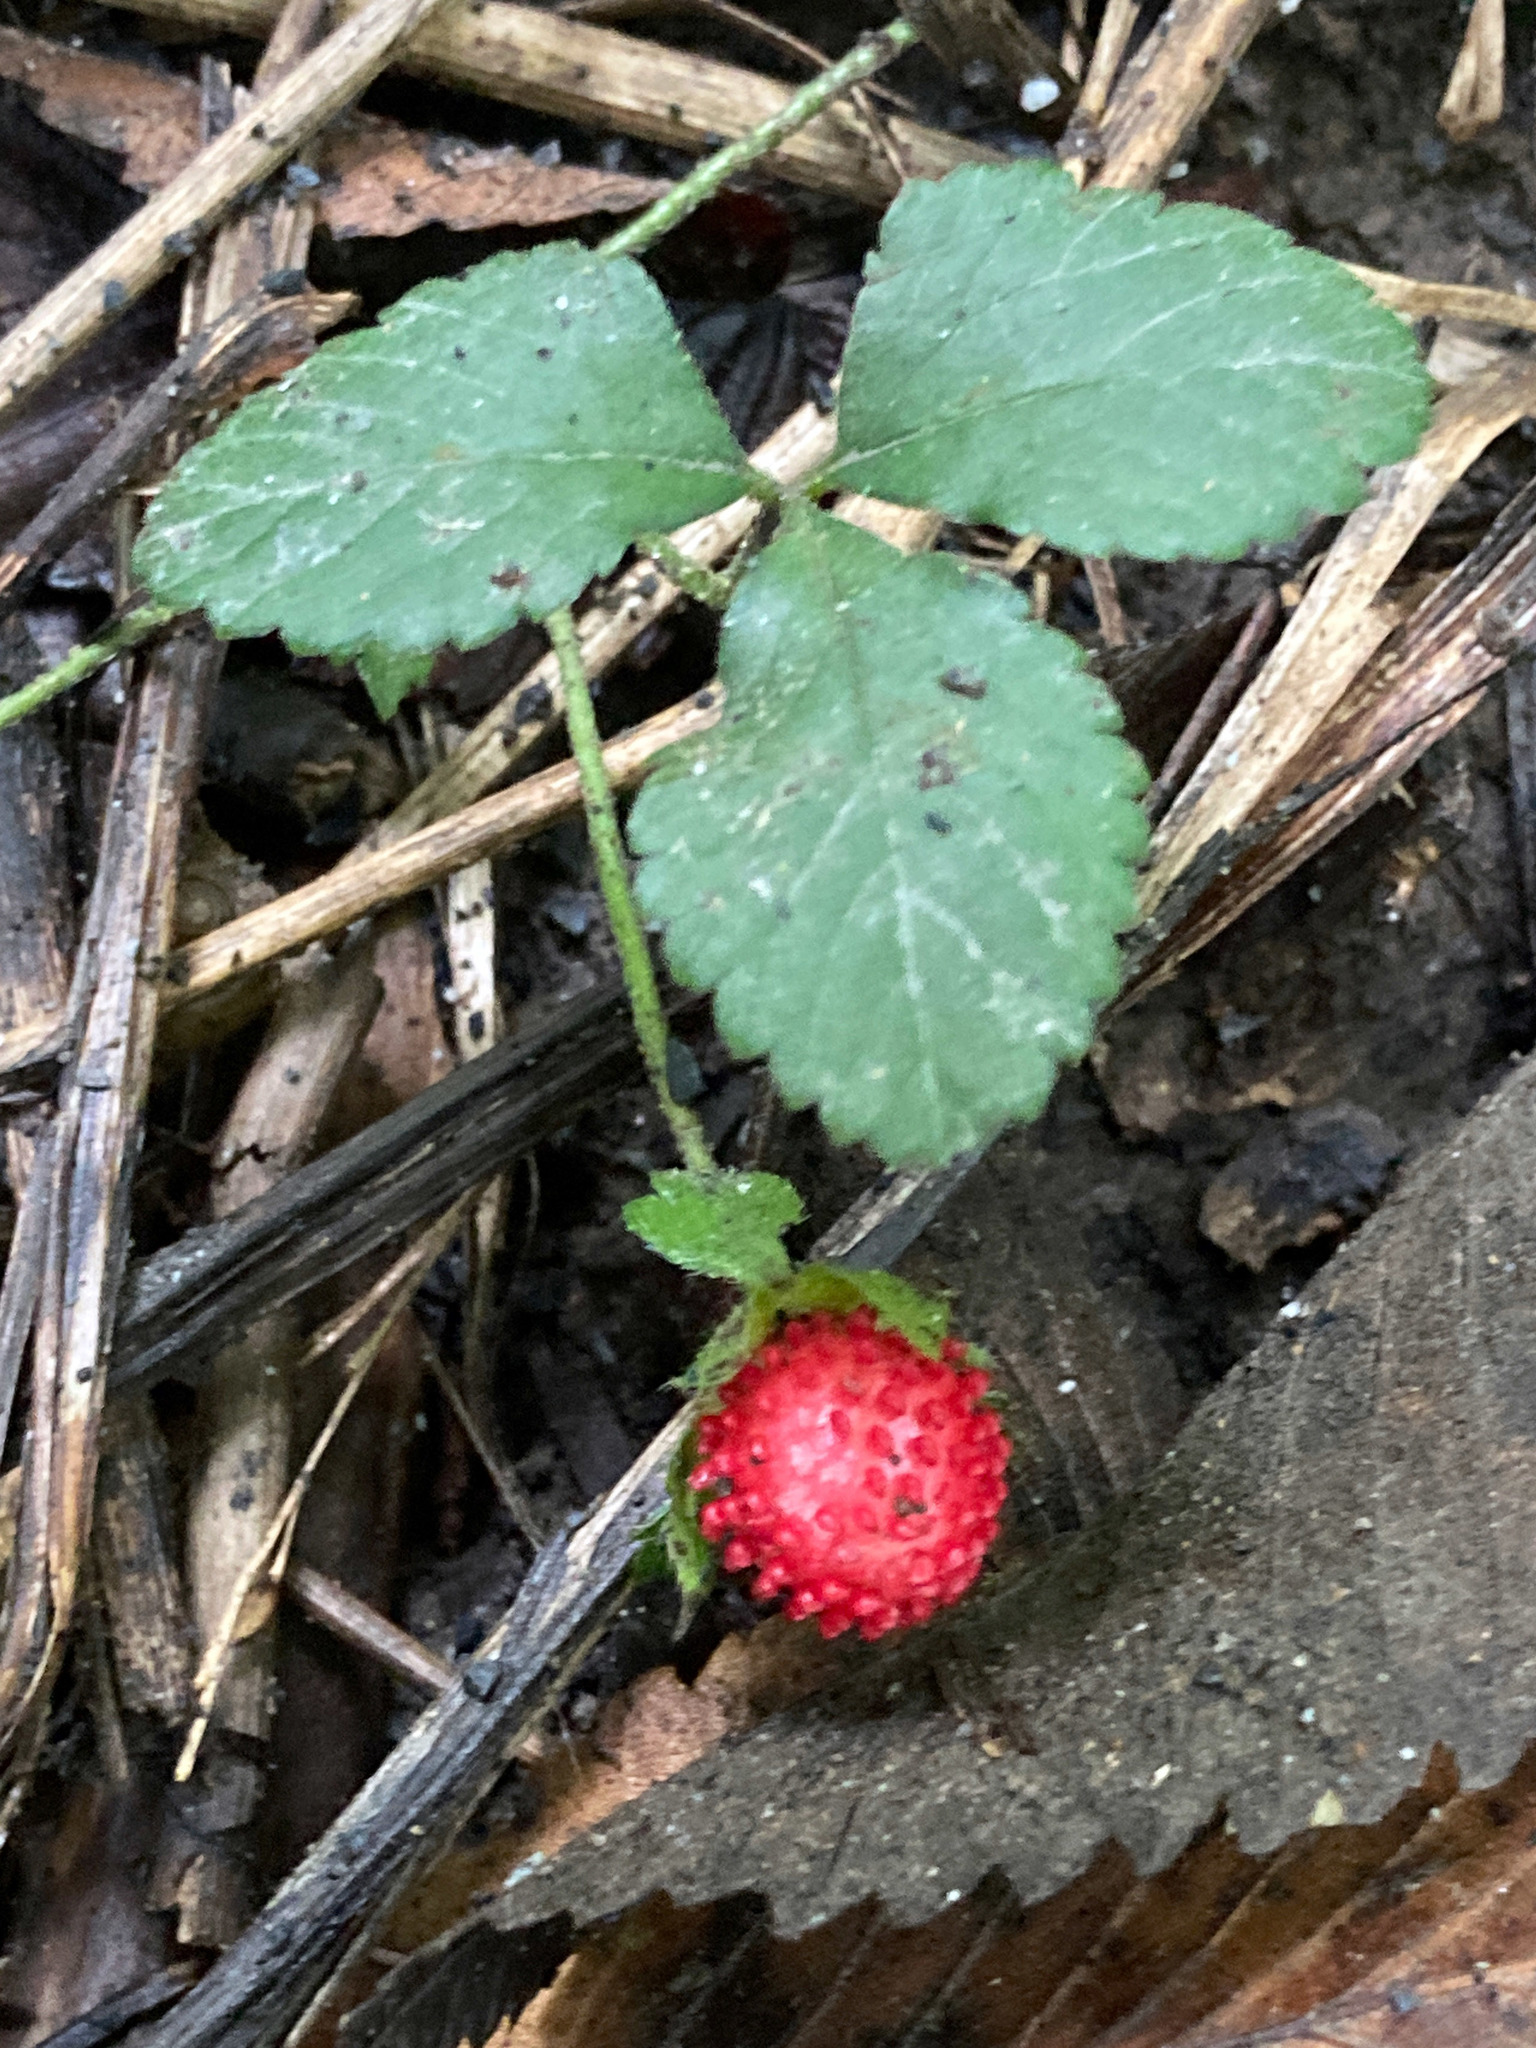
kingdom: Plantae
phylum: Tracheophyta
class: Magnoliopsida
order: Rosales
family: Rosaceae
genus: Potentilla
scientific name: Potentilla indica
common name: Yellow-flowered strawberry
